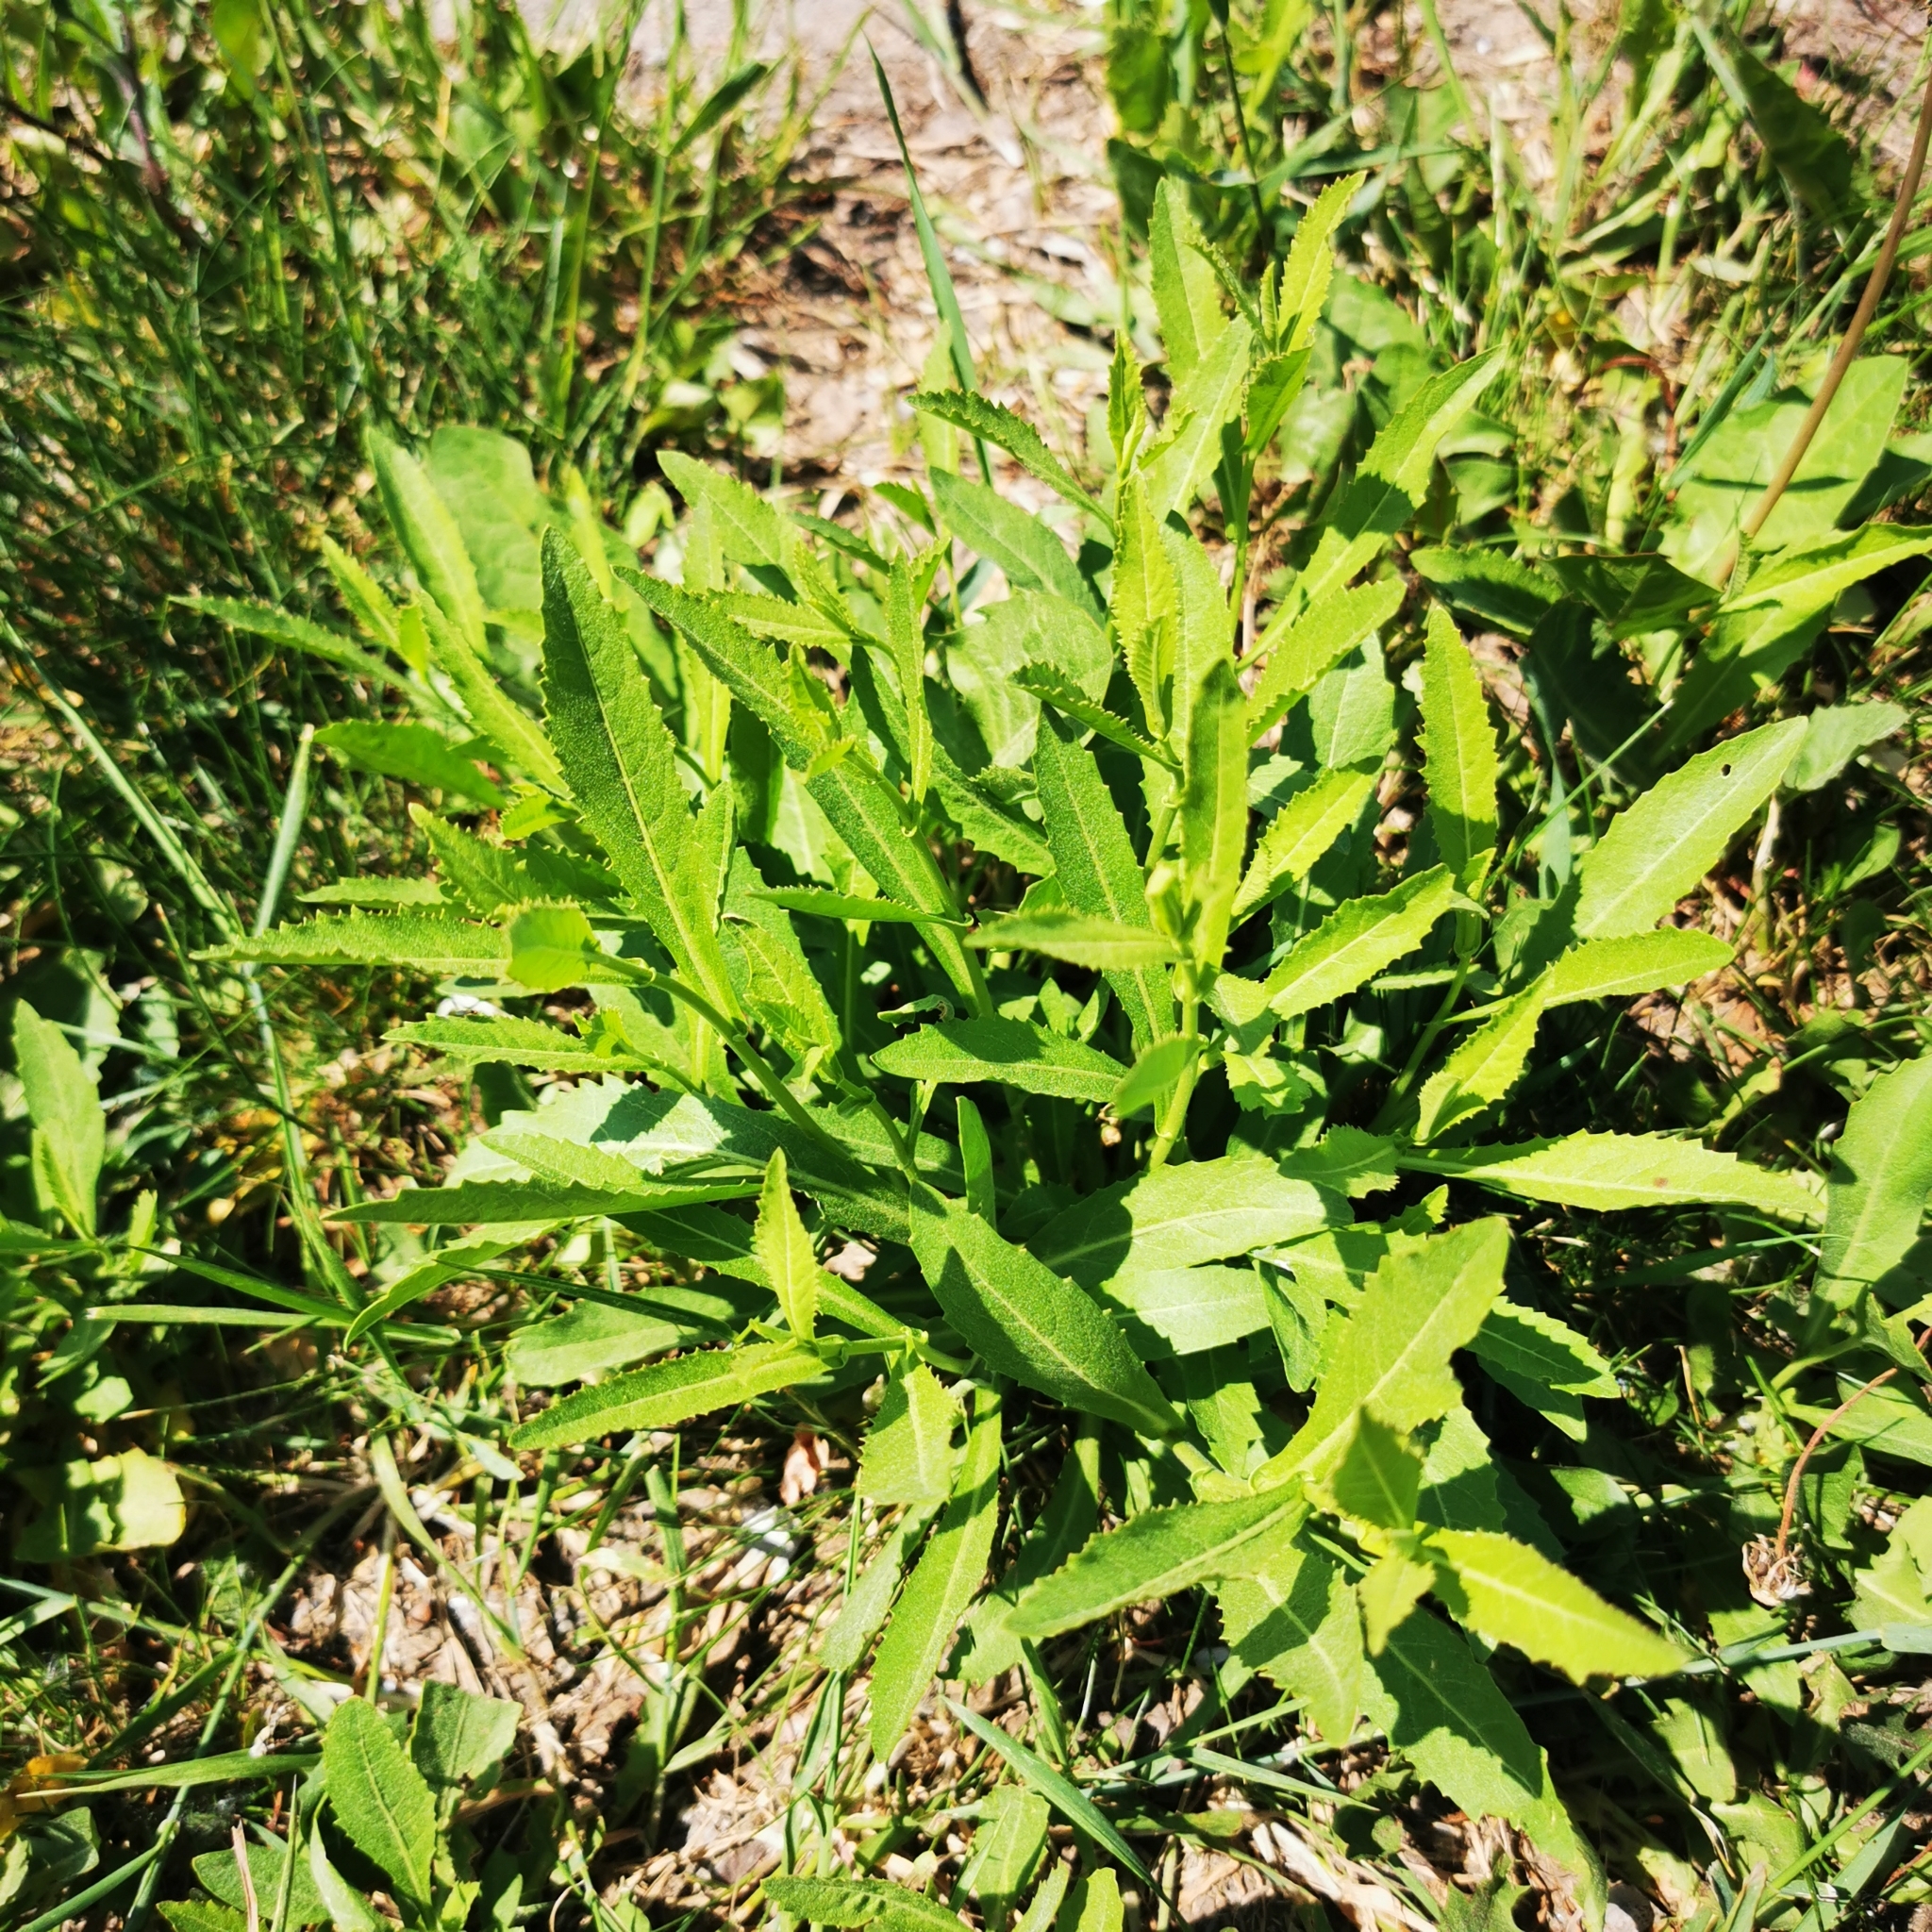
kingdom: Plantae
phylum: Tracheophyta
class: Magnoliopsida
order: Brassicales
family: Brassicaceae
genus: Rorippa
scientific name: Rorippa austriaca
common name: Austrian yellow-cress
